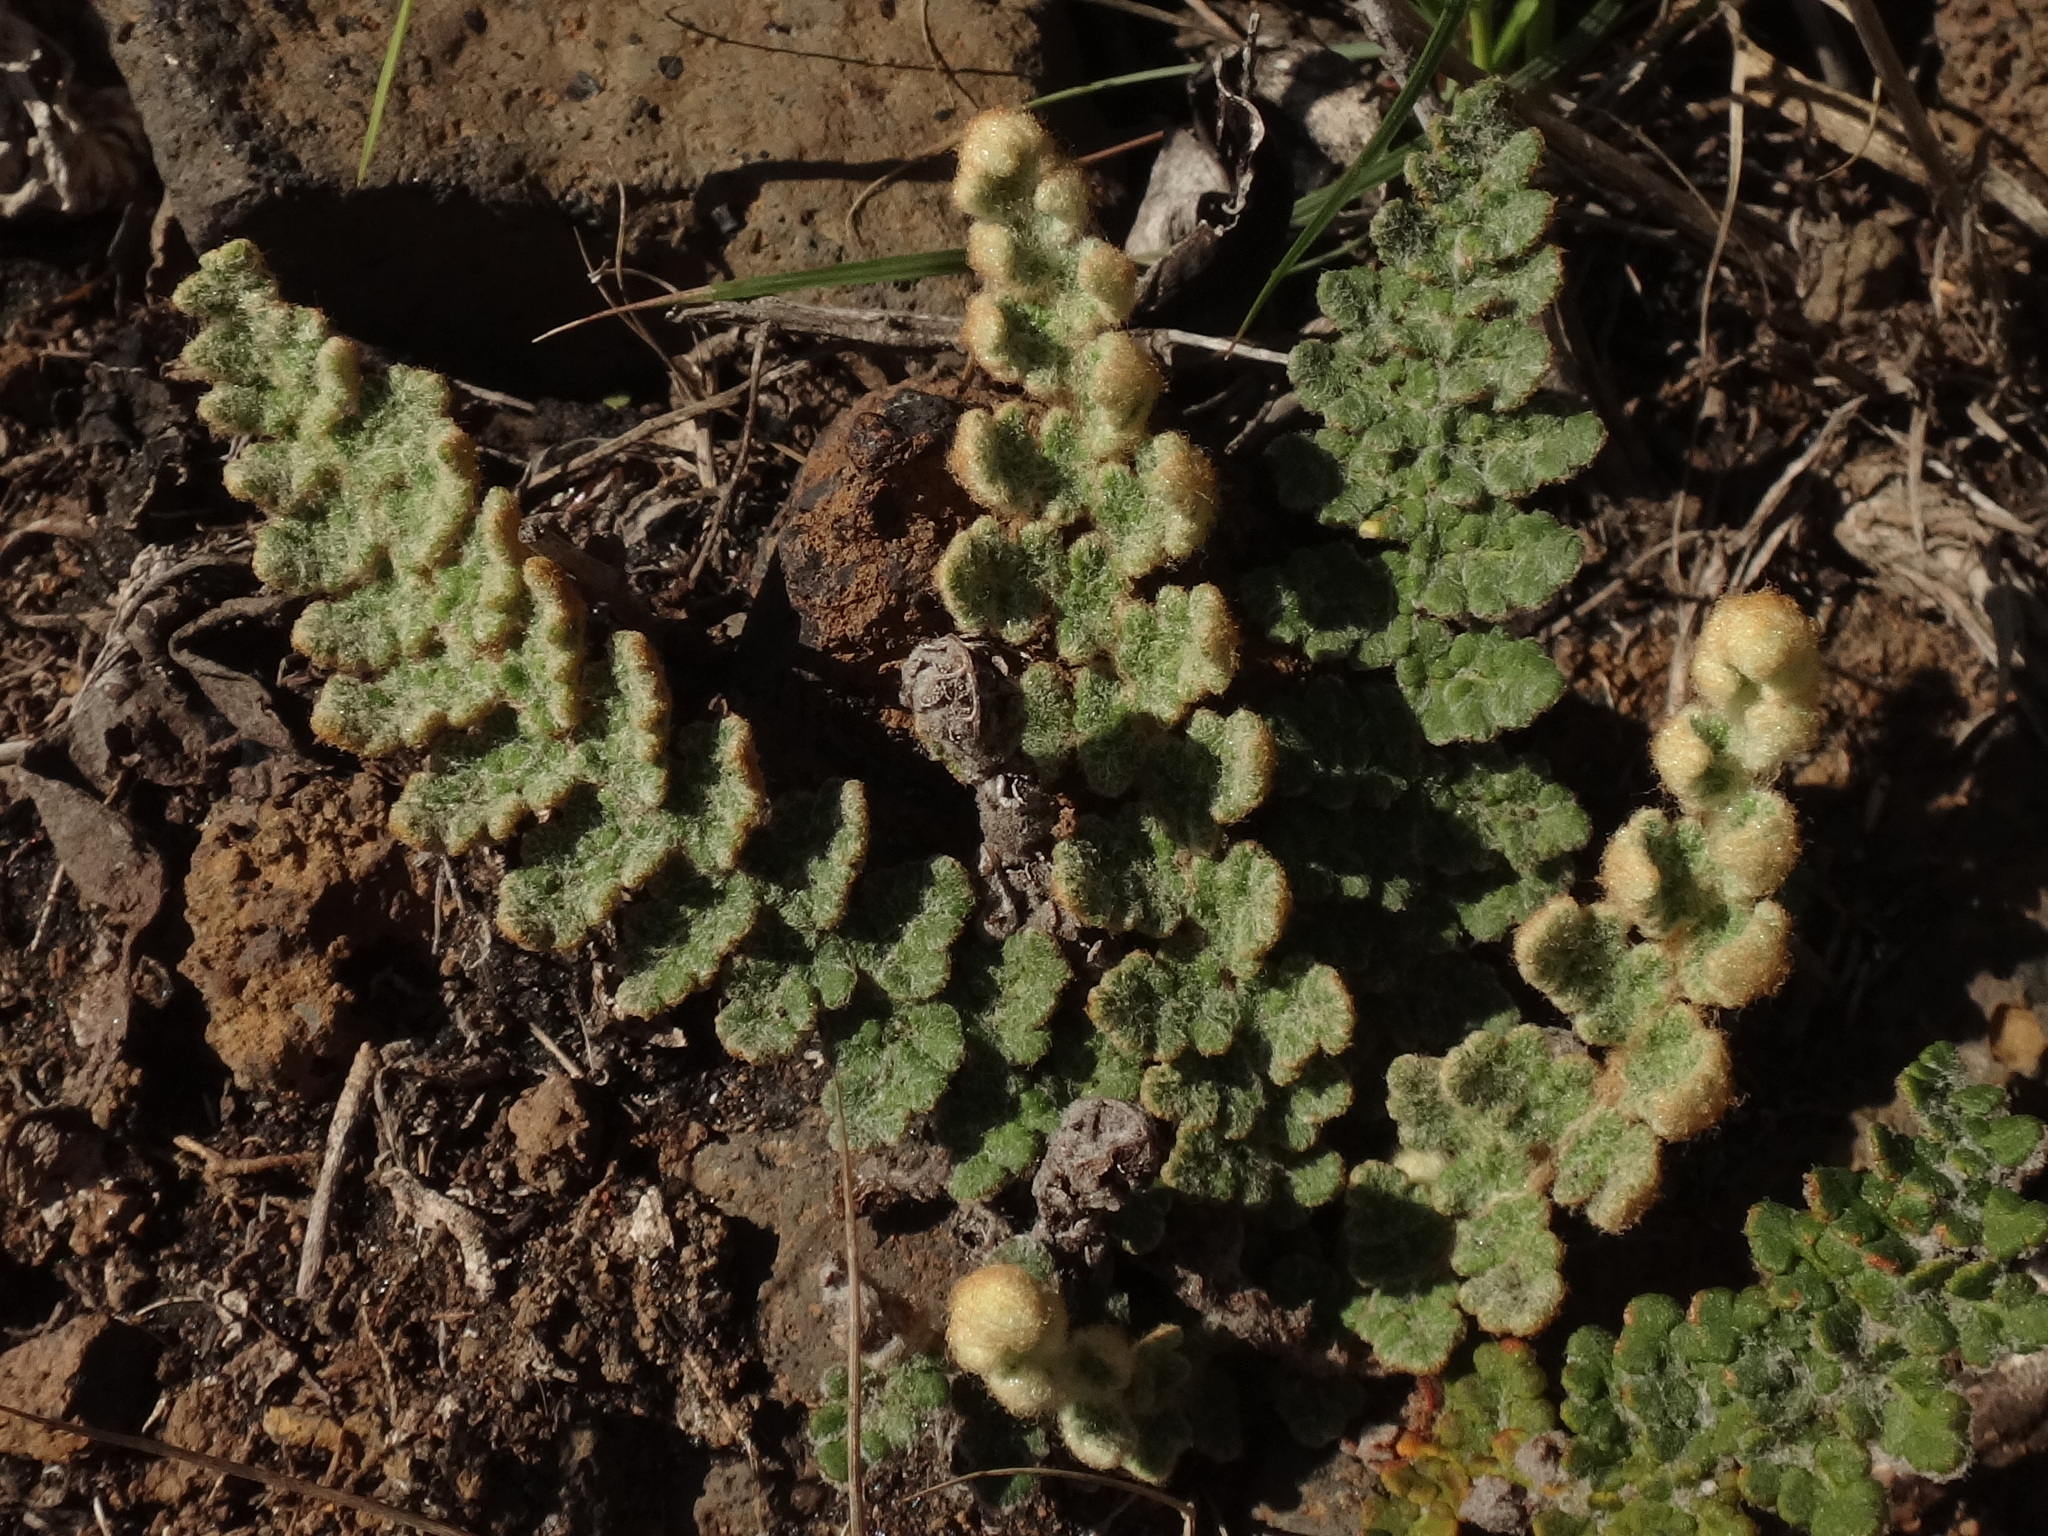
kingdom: Plantae
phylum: Tracheophyta
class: Polypodiopsida
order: Polypodiales
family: Pteridaceae
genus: Cosentinia
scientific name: Cosentinia vellea
